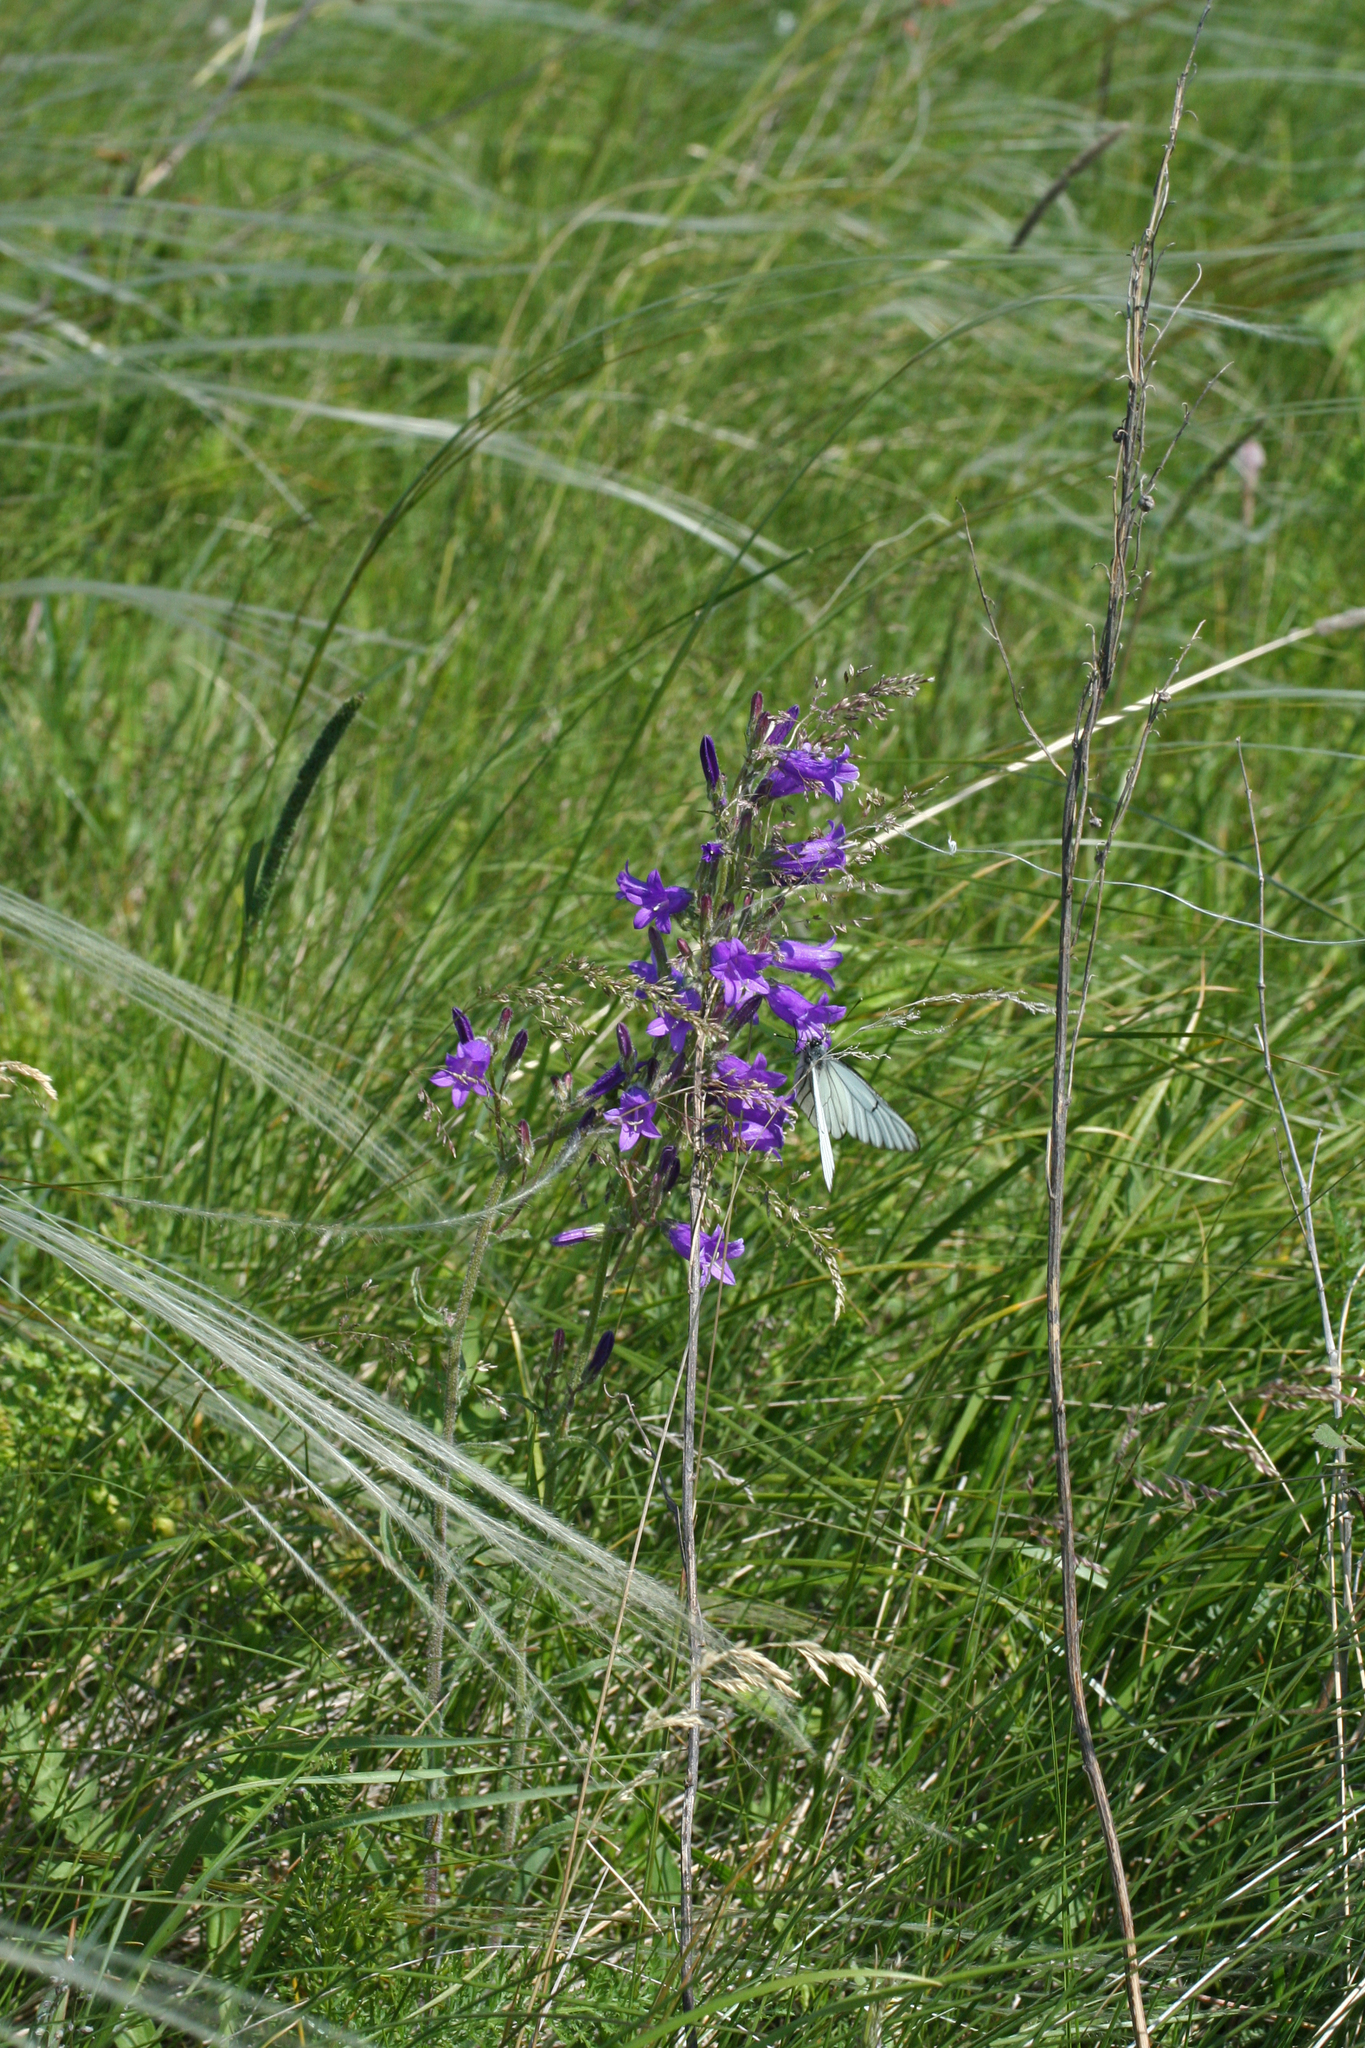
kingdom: Plantae
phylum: Tracheophyta
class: Magnoliopsida
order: Asterales
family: Campanulaceae
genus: Campanula
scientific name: Campanula sibirica
